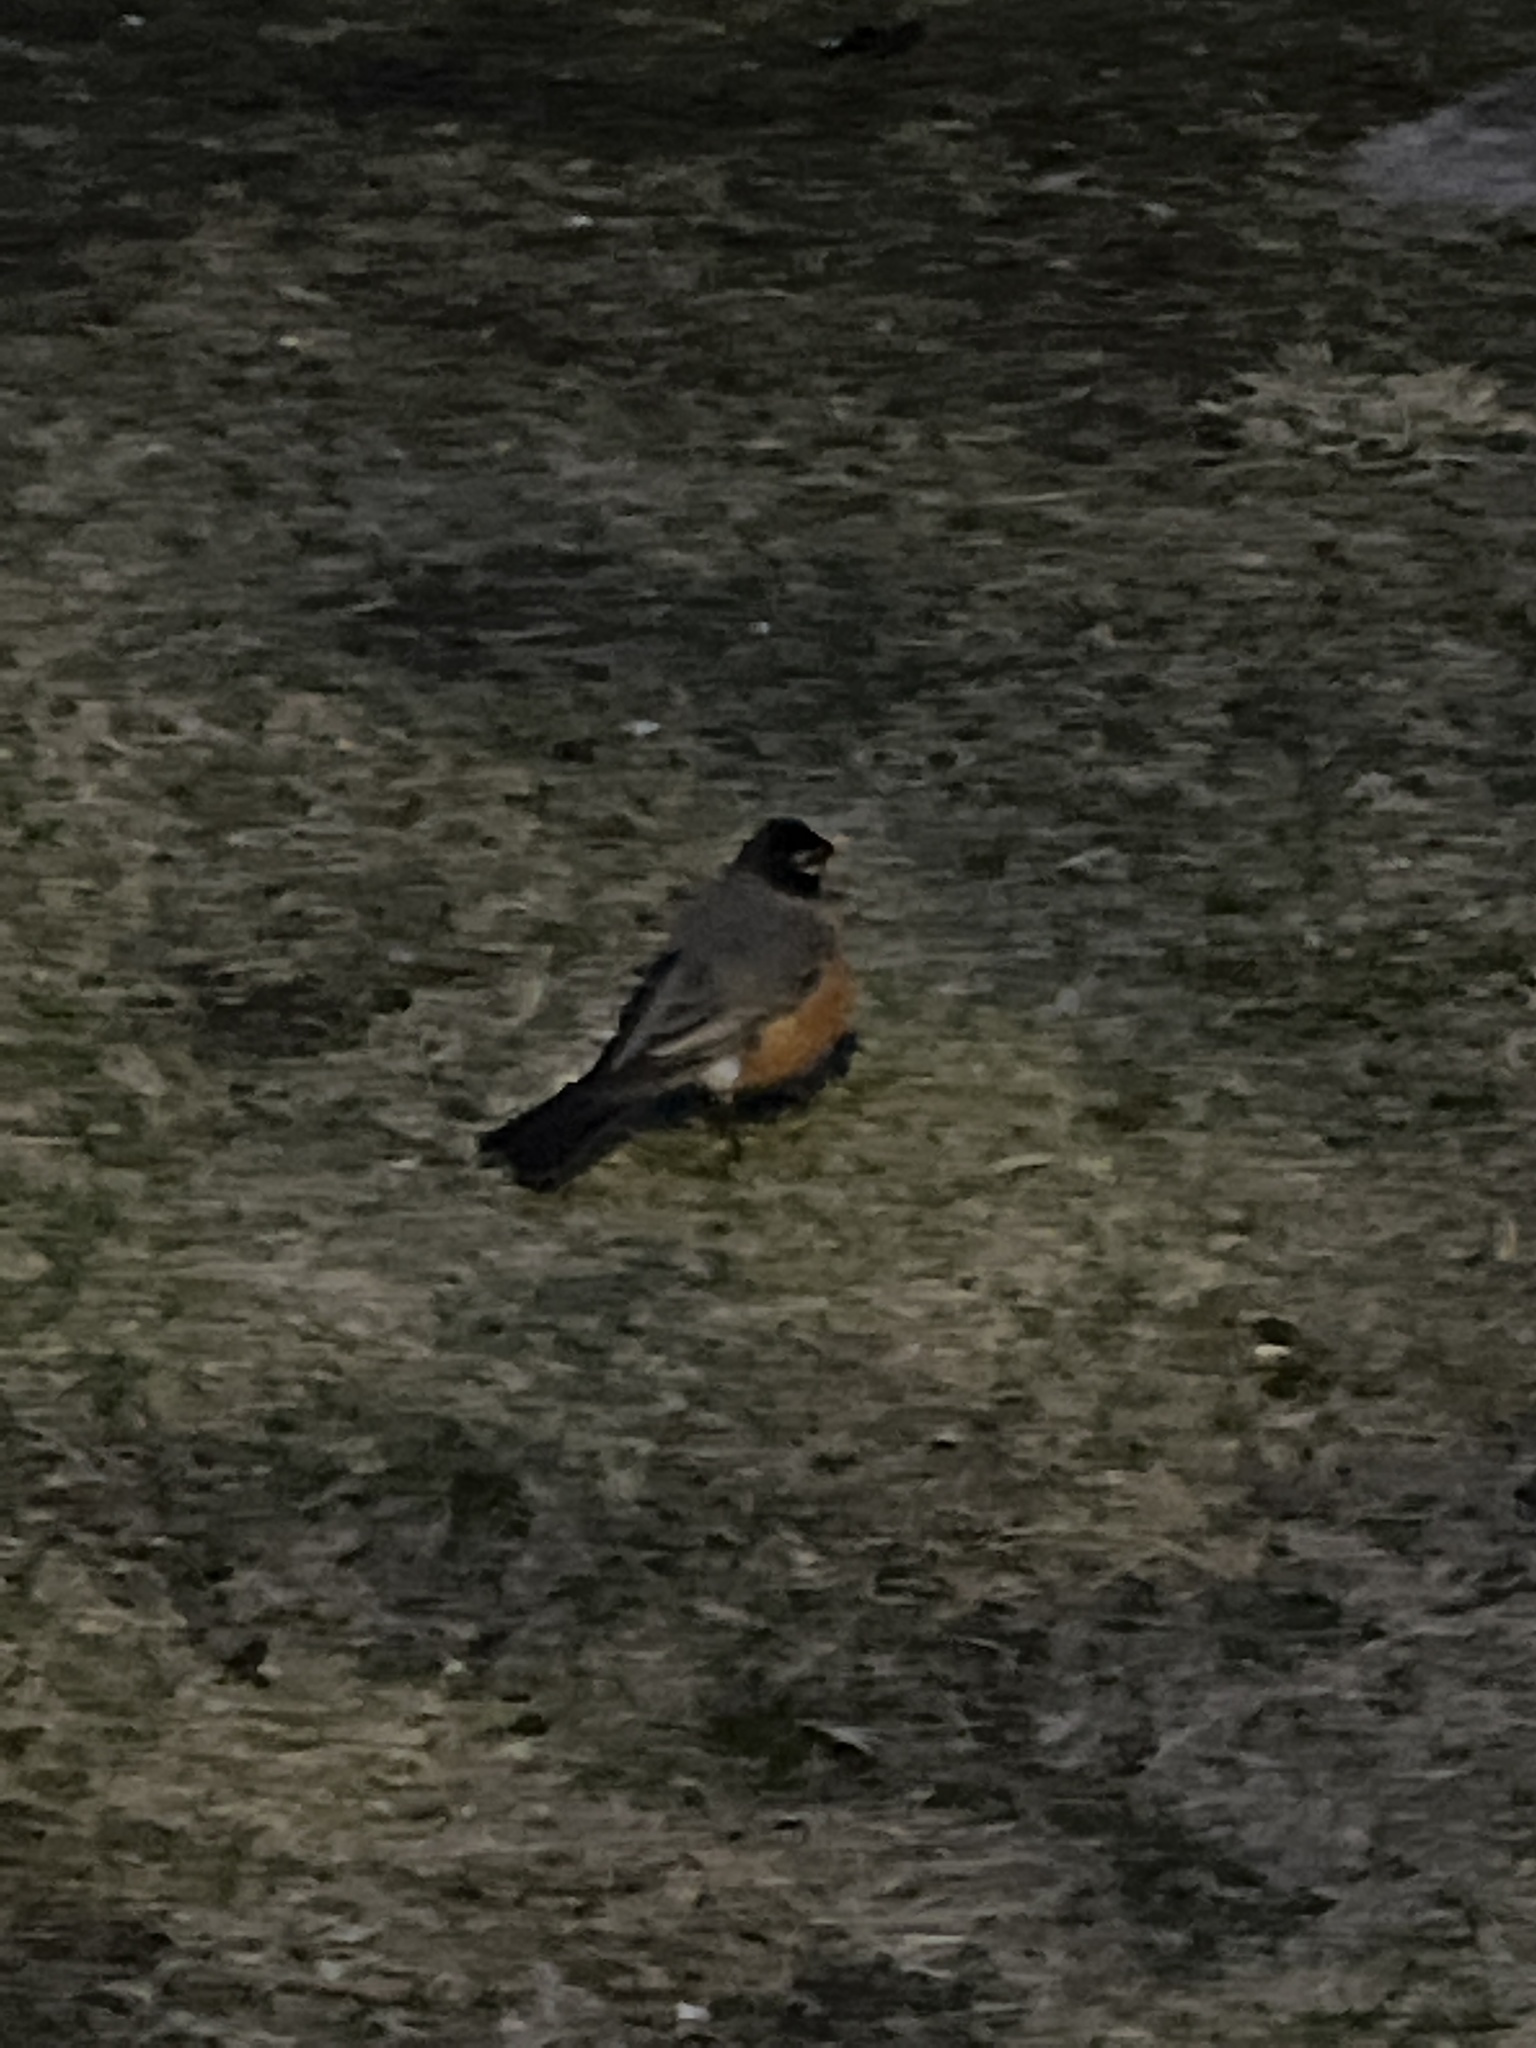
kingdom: Animalia
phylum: Chordata
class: Aves
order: Passeriformes
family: Turdidae
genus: Turdus
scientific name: Turdus migratorius
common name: American robin
